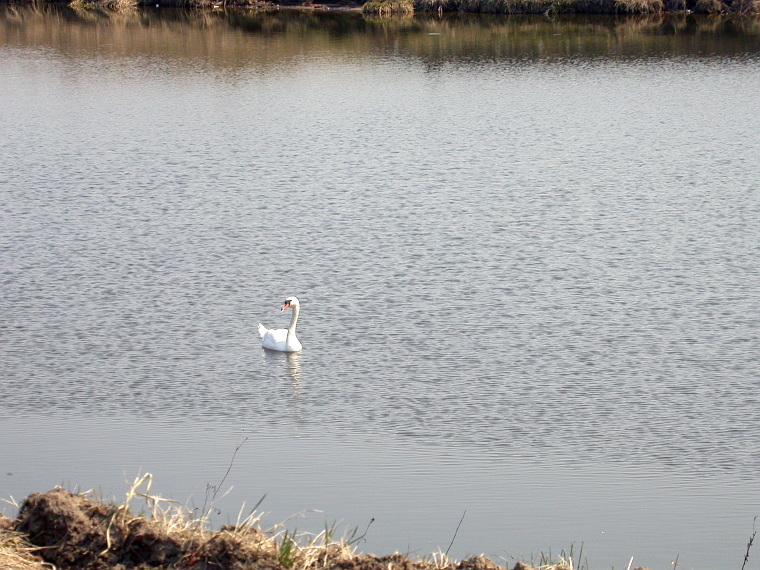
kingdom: Animalia
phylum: Chordata
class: Aves
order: Anseriformes
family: Anatidae
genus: Cygnus
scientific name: Cygnus olor
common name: Mute swan
